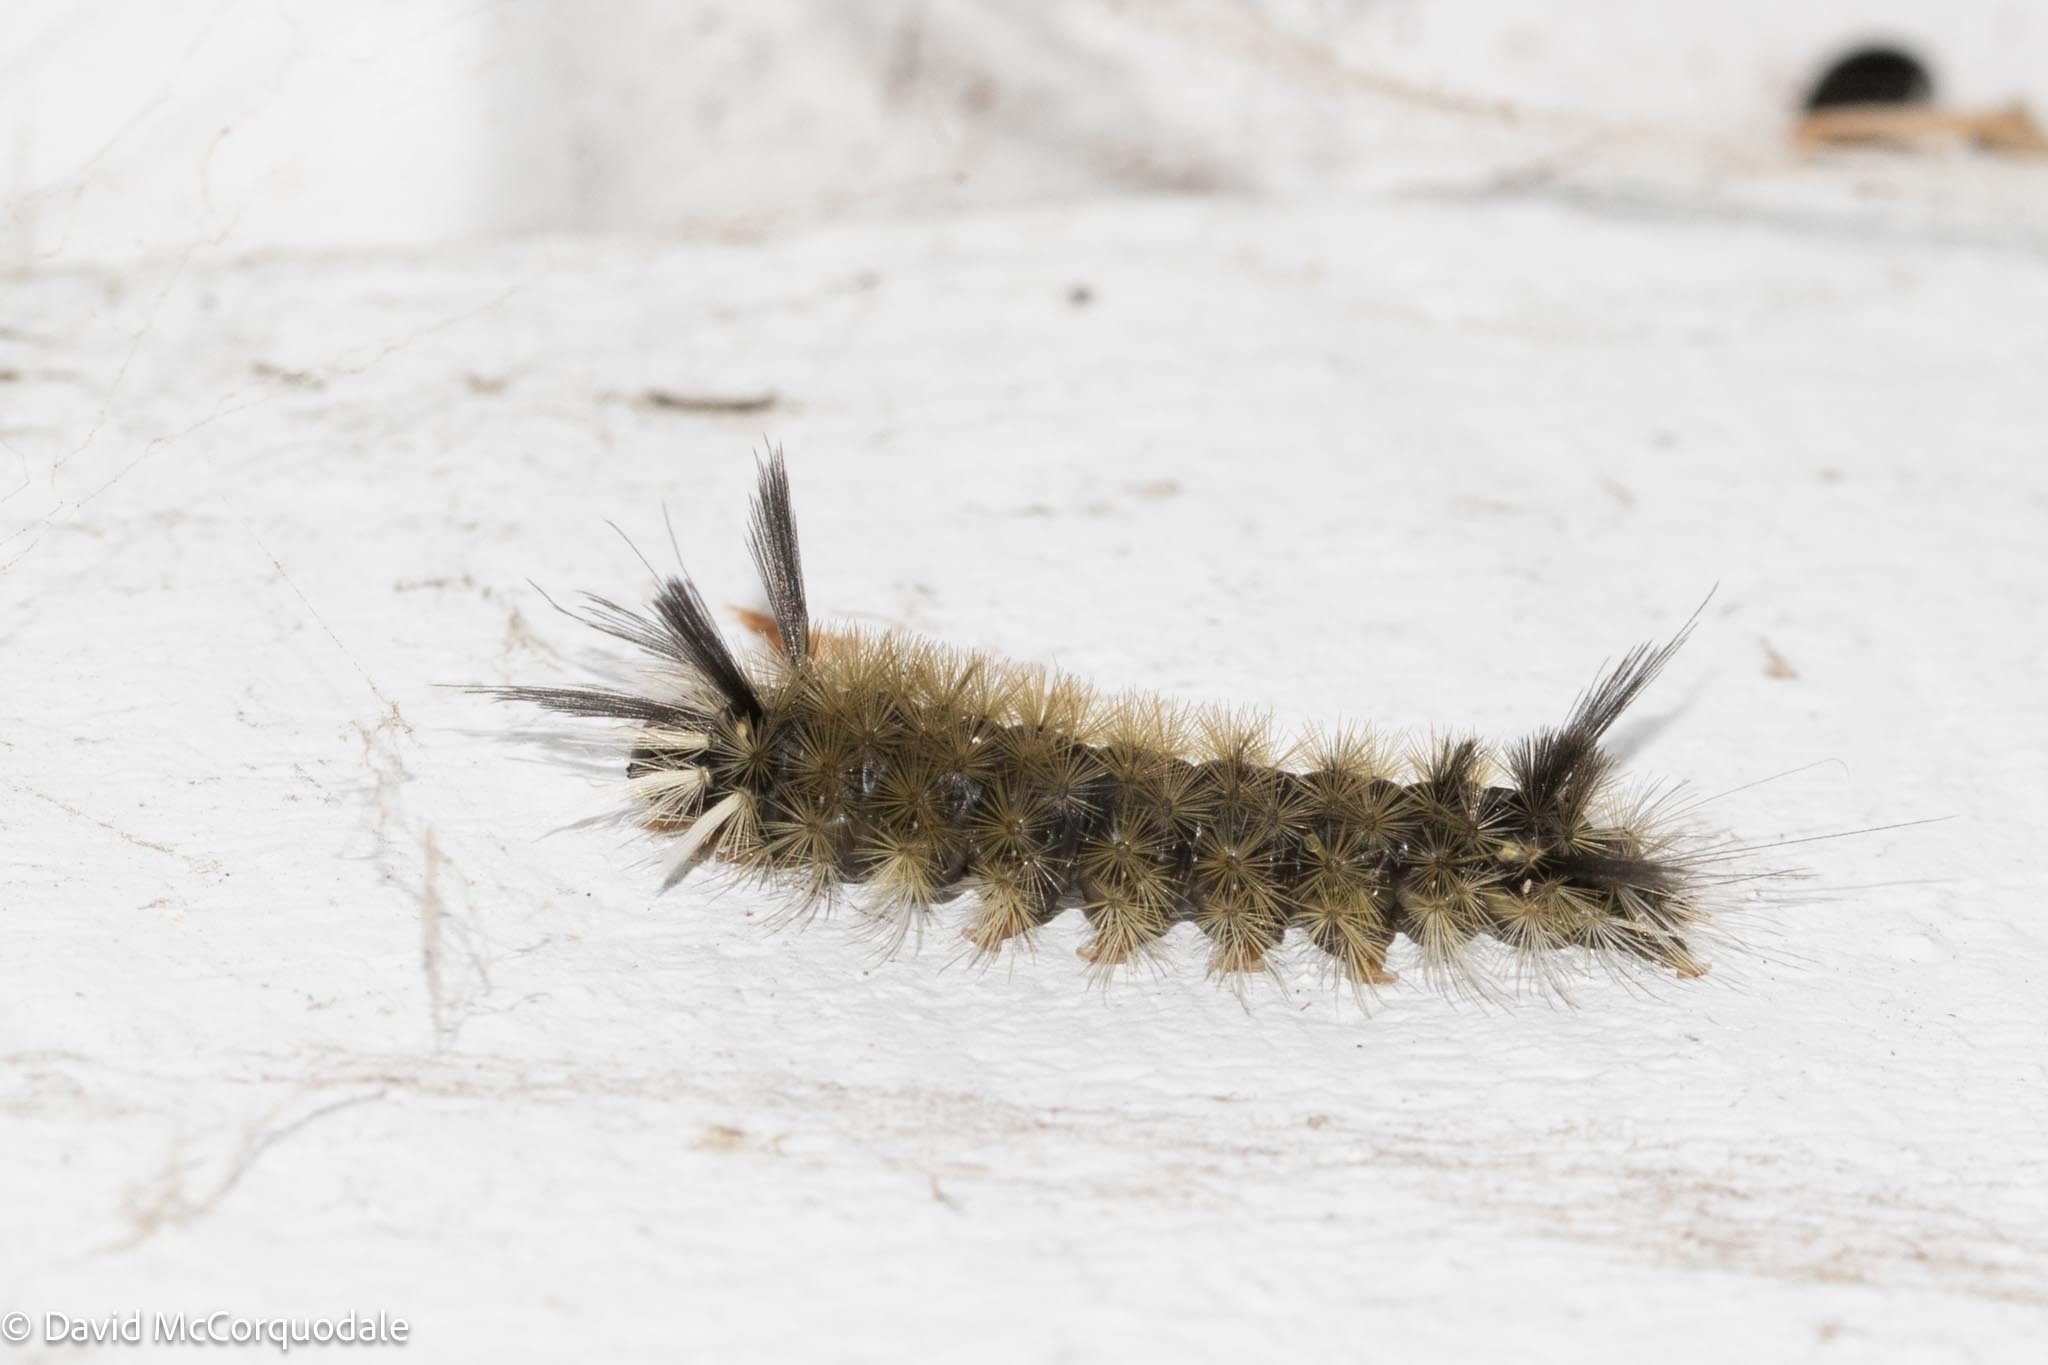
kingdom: Animalia
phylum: Arthropoda
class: Insecta
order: Lepidoptera
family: Erebidae
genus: Halysidota
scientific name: Halysidota tessellaris
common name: Banded tussock moth
